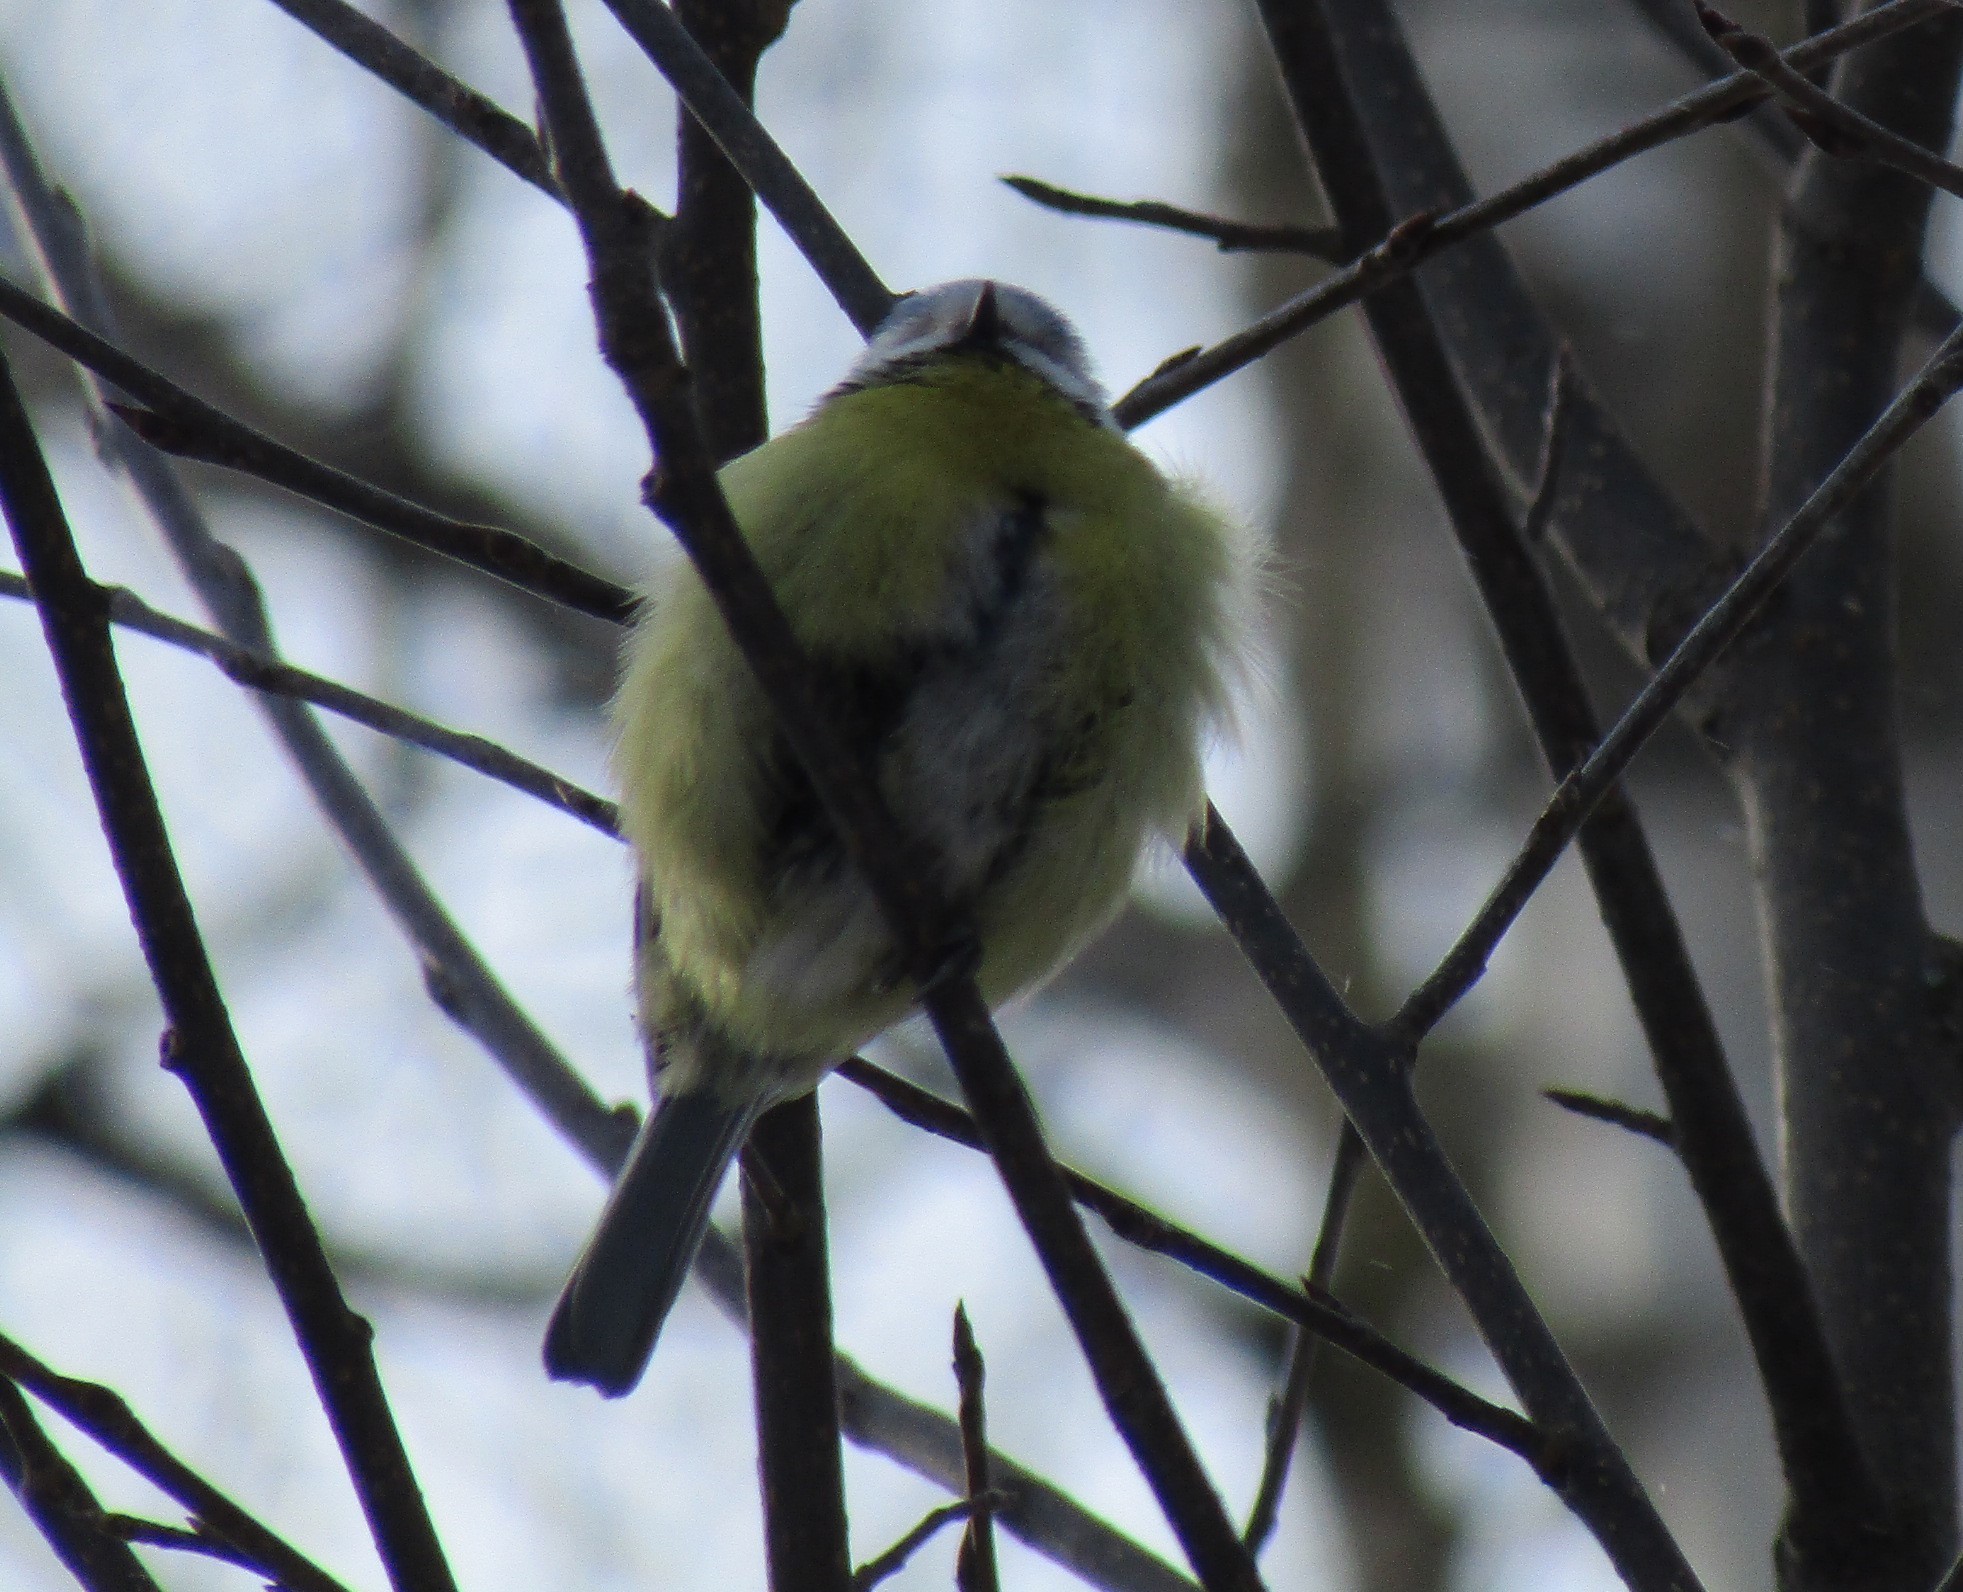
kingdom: Animalia
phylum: Chordata
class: Aves
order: Passeriformes
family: Paridae
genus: Cyanistes
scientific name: Cyanistes caeruleus
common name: Eurasian blue tit
